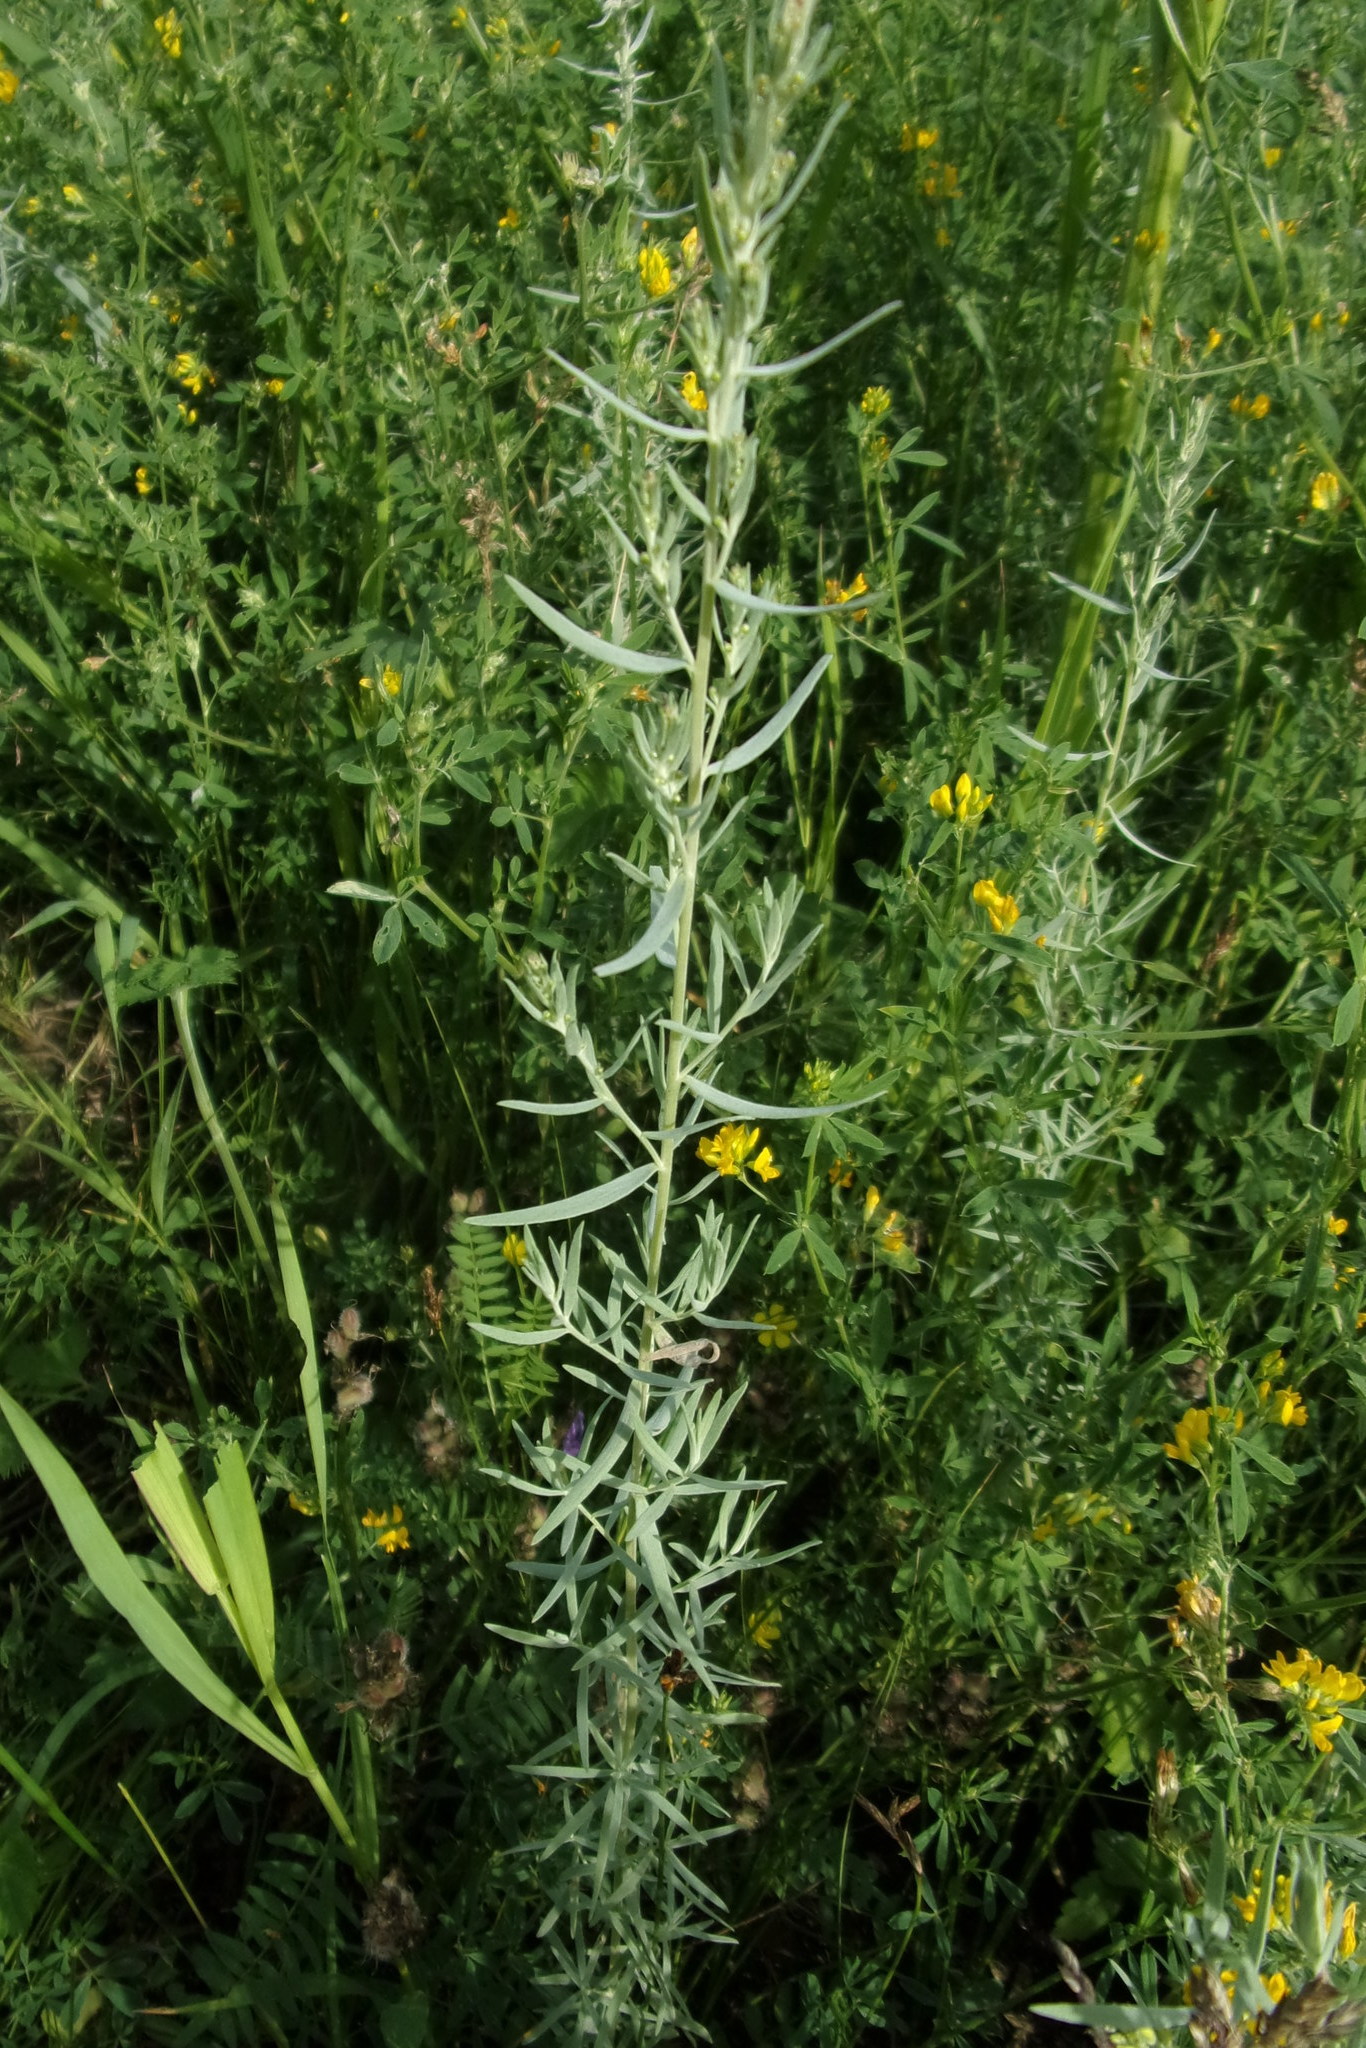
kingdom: Plantae
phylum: Tracheophyta
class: Magnoliopsida
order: Asterales
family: Asteraceae
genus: Artemisia
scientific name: Artemisia glauca
